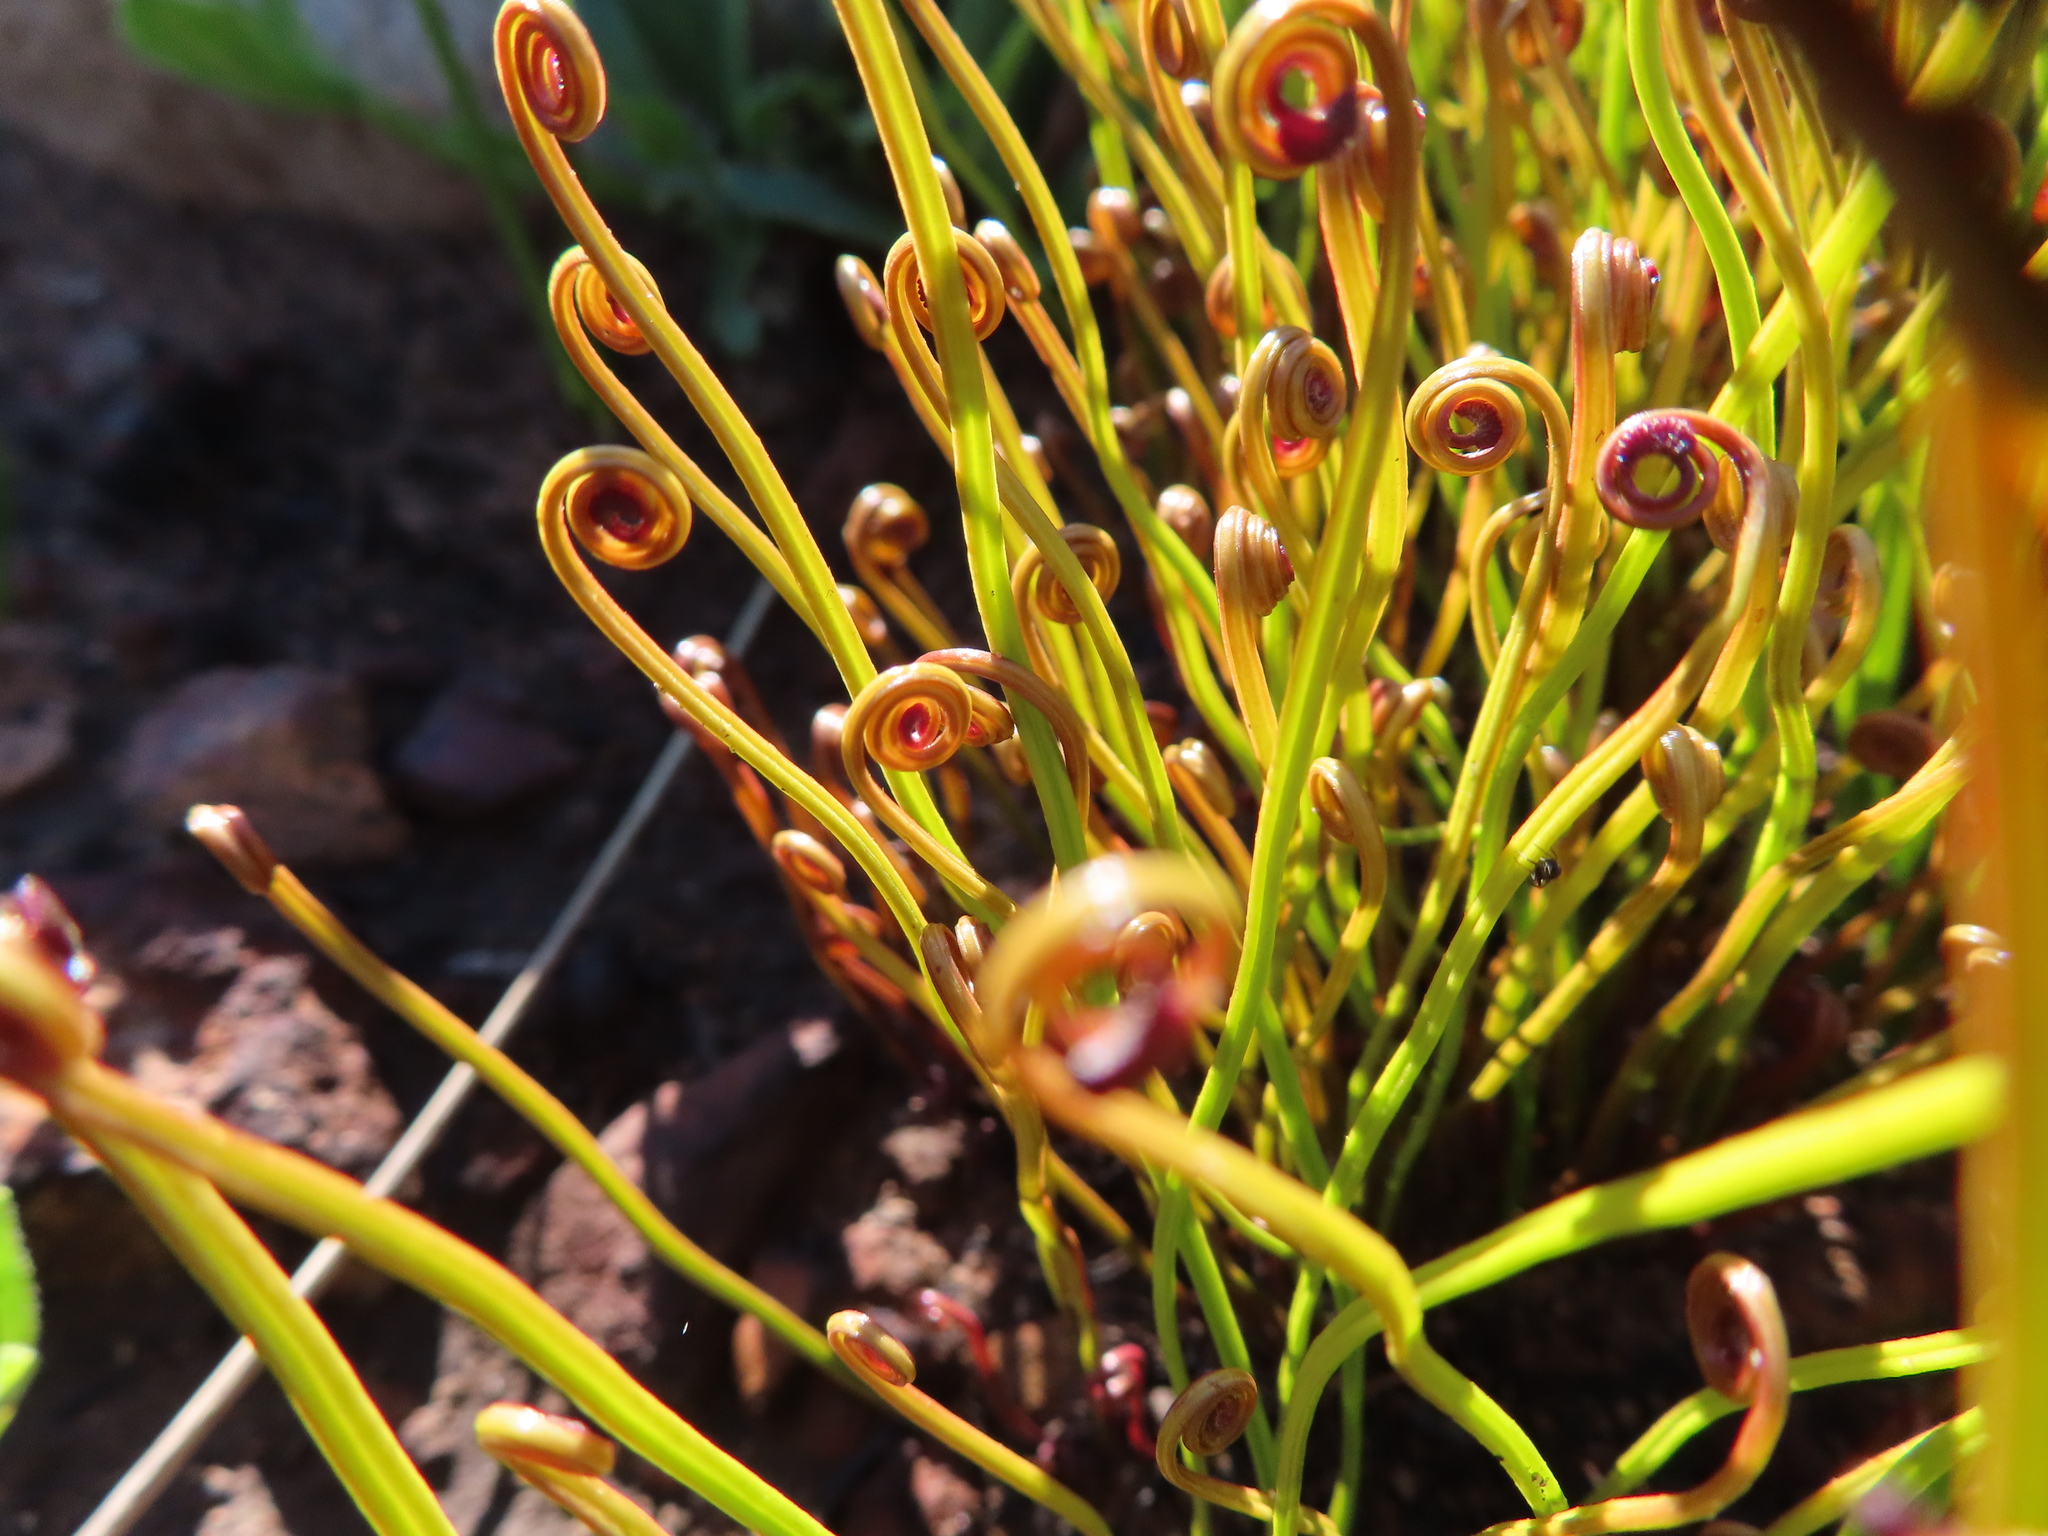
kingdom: Plantae
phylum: Tracheophyta
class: Polypodiopsida
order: Schizaeales
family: Schizaeaceae
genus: Schizaea
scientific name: Schizaea pectinata
